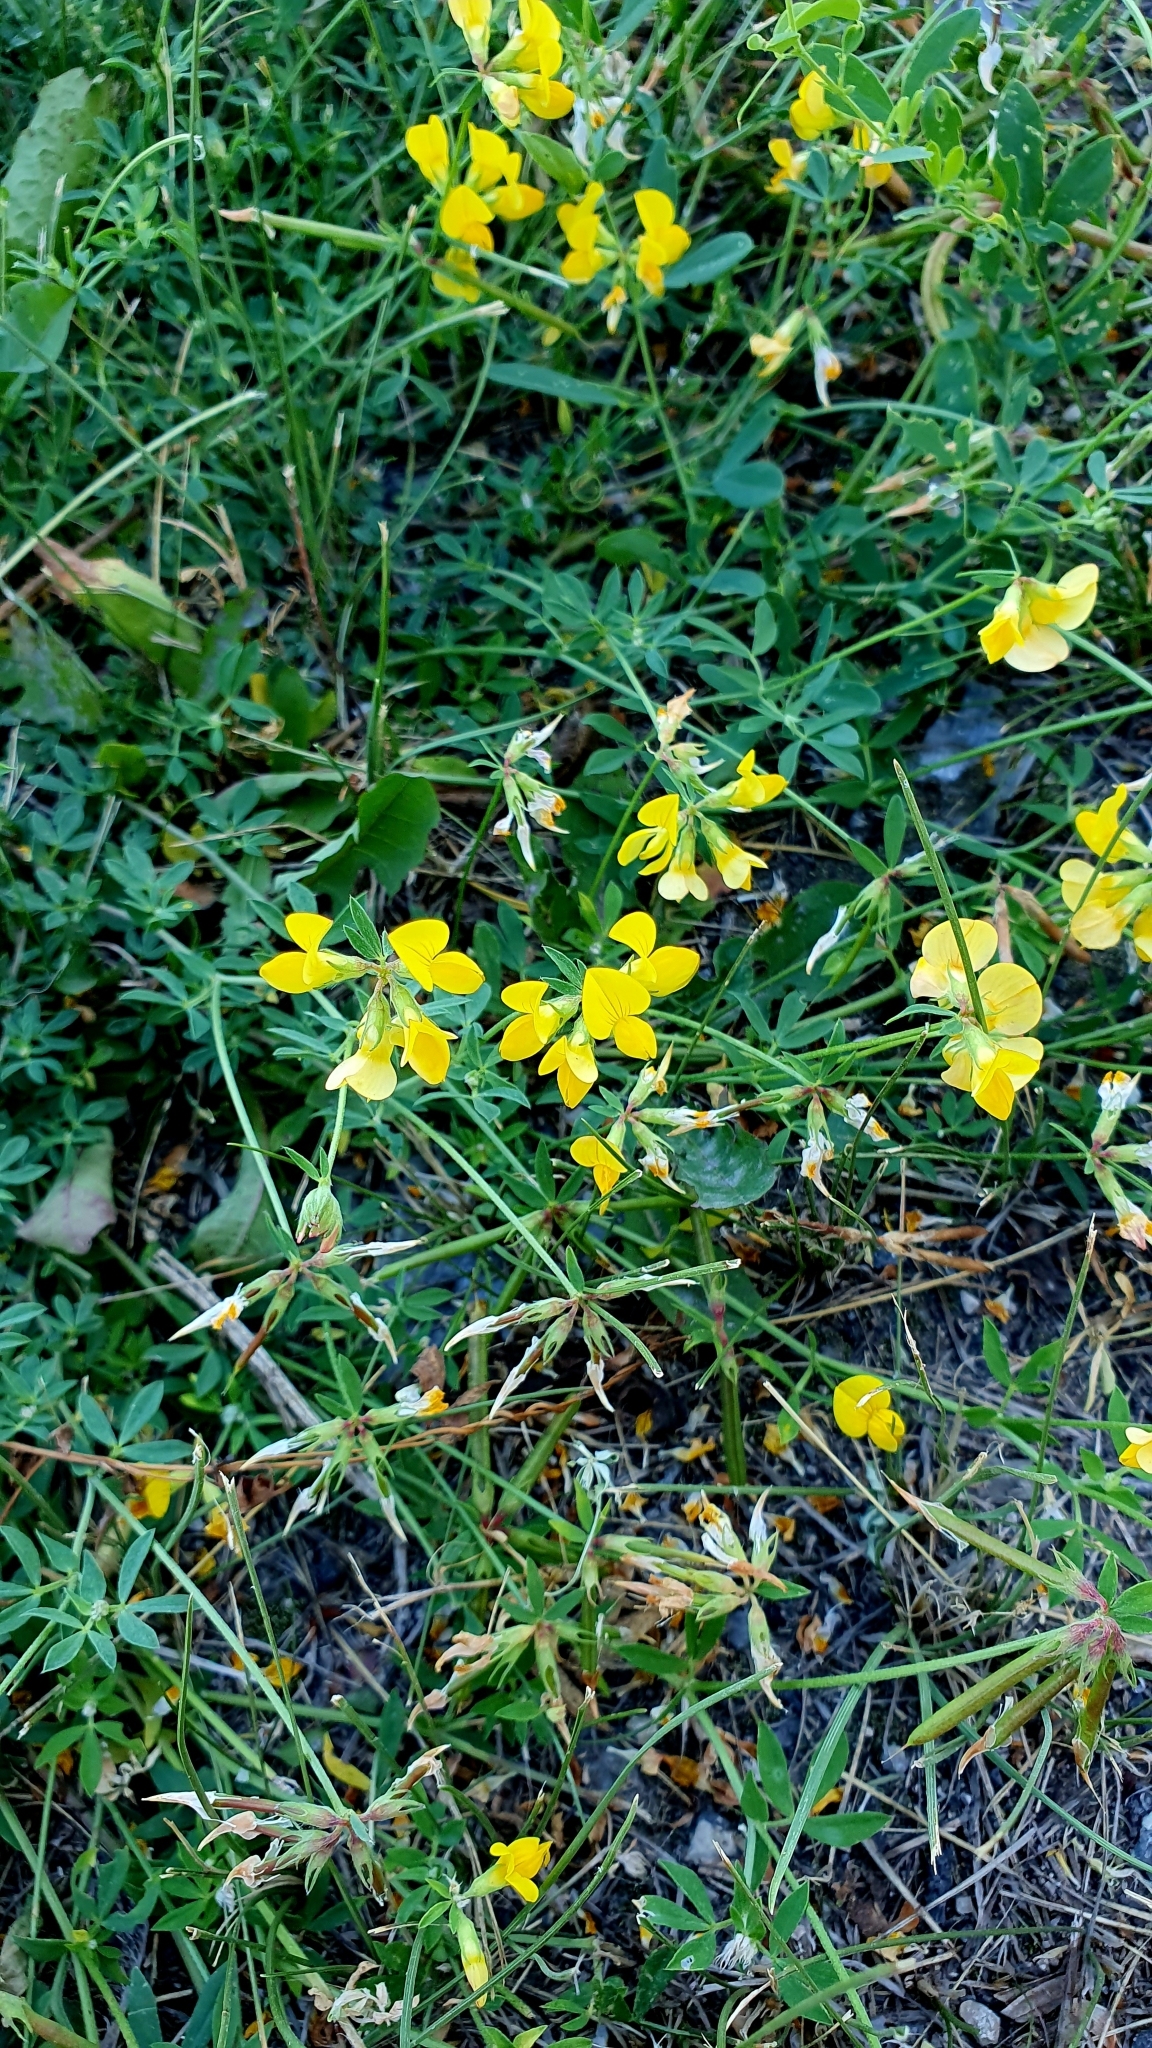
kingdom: Plantae
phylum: Tracheophyta
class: Magnoliopsida
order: Fabales
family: Fabaceae
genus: Lotus
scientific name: Lotus corniculatus
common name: Common bird's-foot-trefoil
